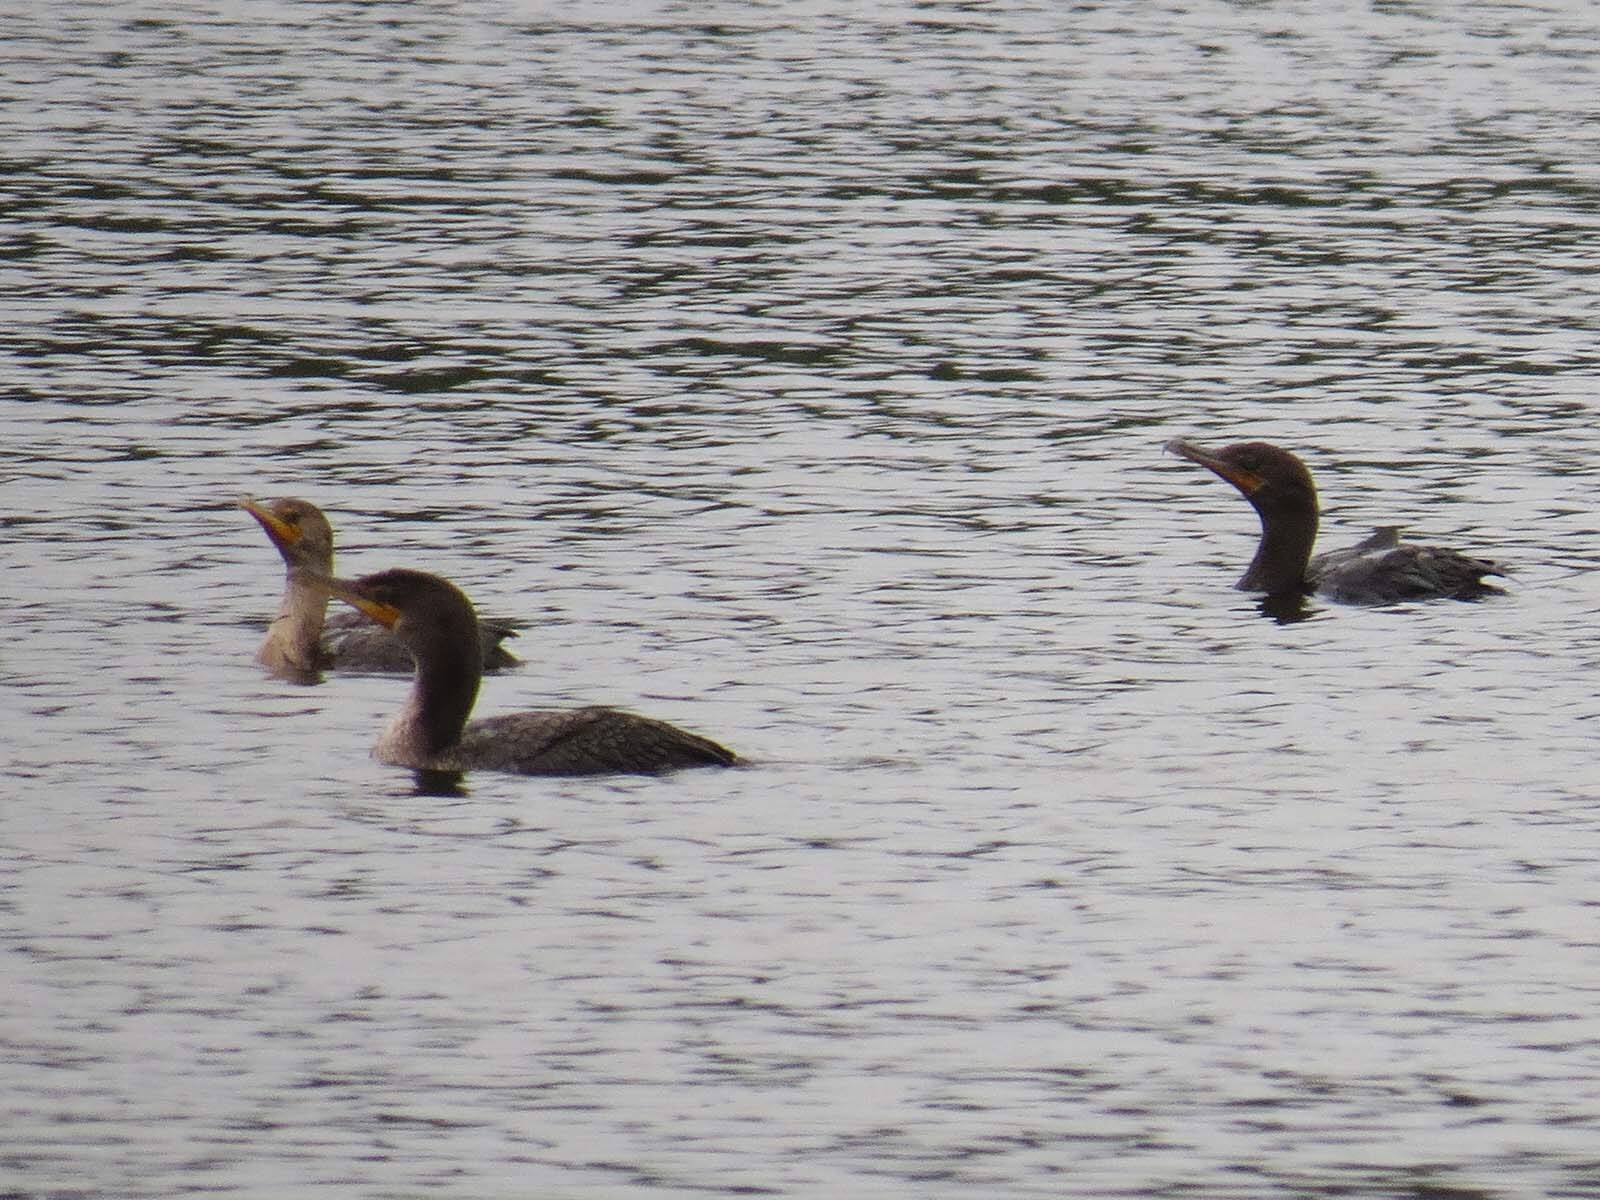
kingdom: Animalia
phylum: Chordata
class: Aves
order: Suliformes
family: Phalacrocoracidae
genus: Phalacrocorax
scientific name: Phalacrocorax auritus
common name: Double-crested cormorant
